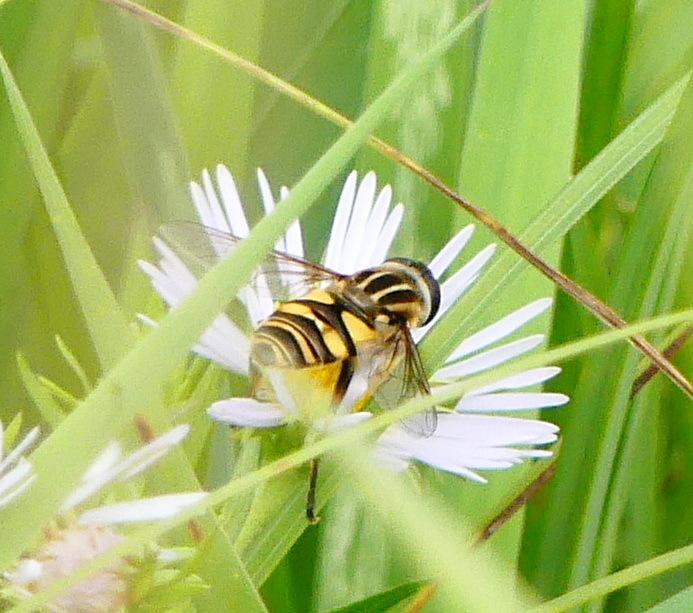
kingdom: Animalia
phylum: Arthropoda
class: Insecta
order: Diptera
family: Syrphidae
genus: Helophilus
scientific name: Helophilus fasciatus
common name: Narrow-headed marsh fly
